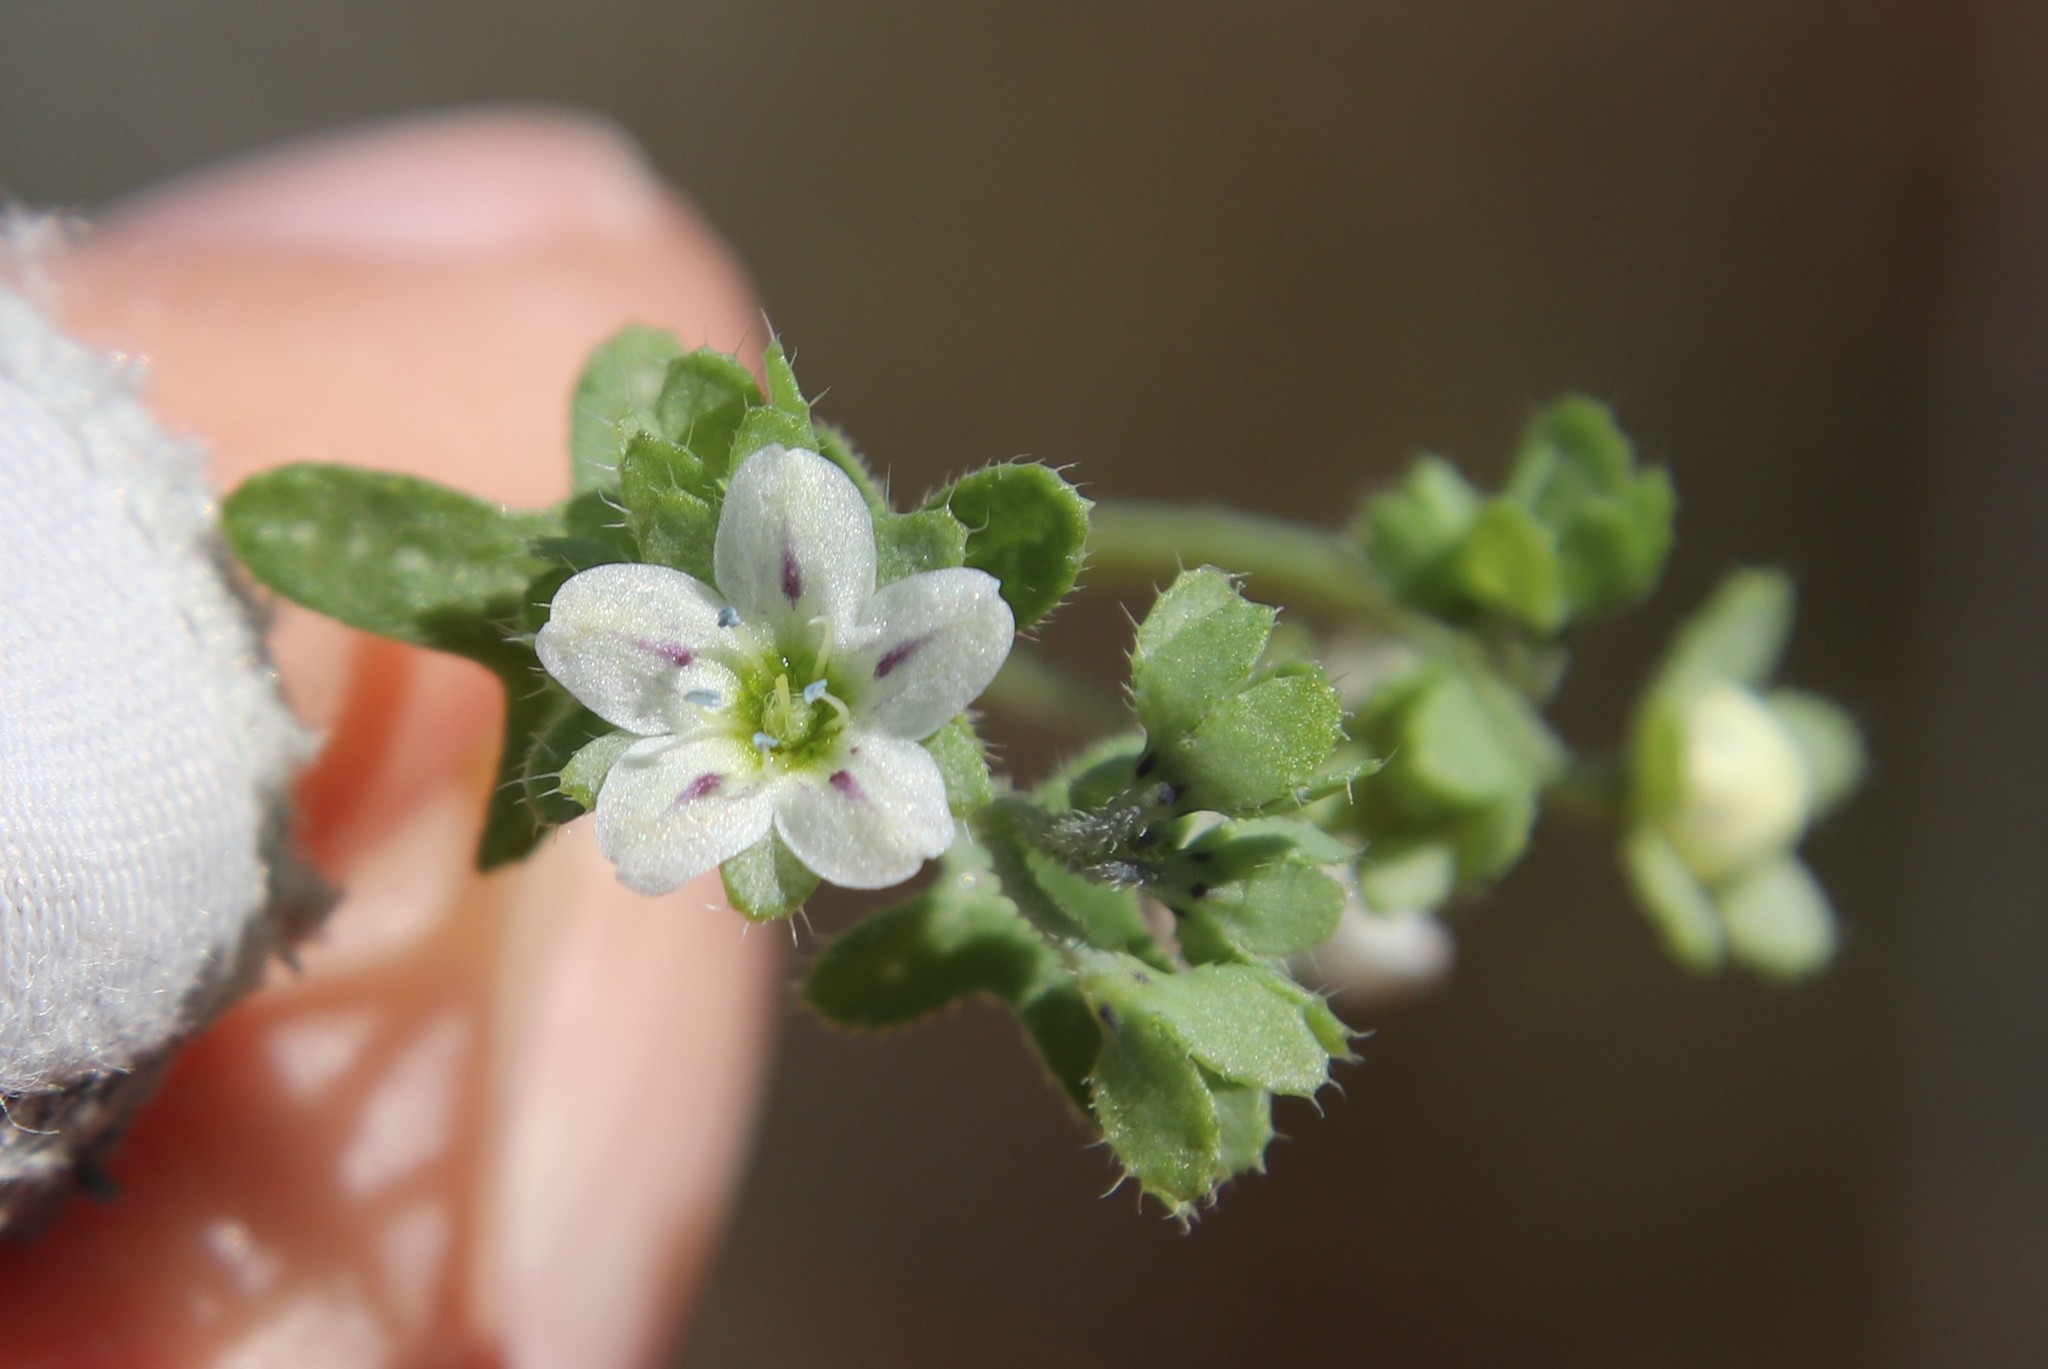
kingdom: Plantae
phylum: Tracheophyta
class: Magnoliopsida
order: Boraginales
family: Hydrophyllaceae
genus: Pholistoma
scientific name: Pholistoma membranaceum
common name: White fiesta-flower
